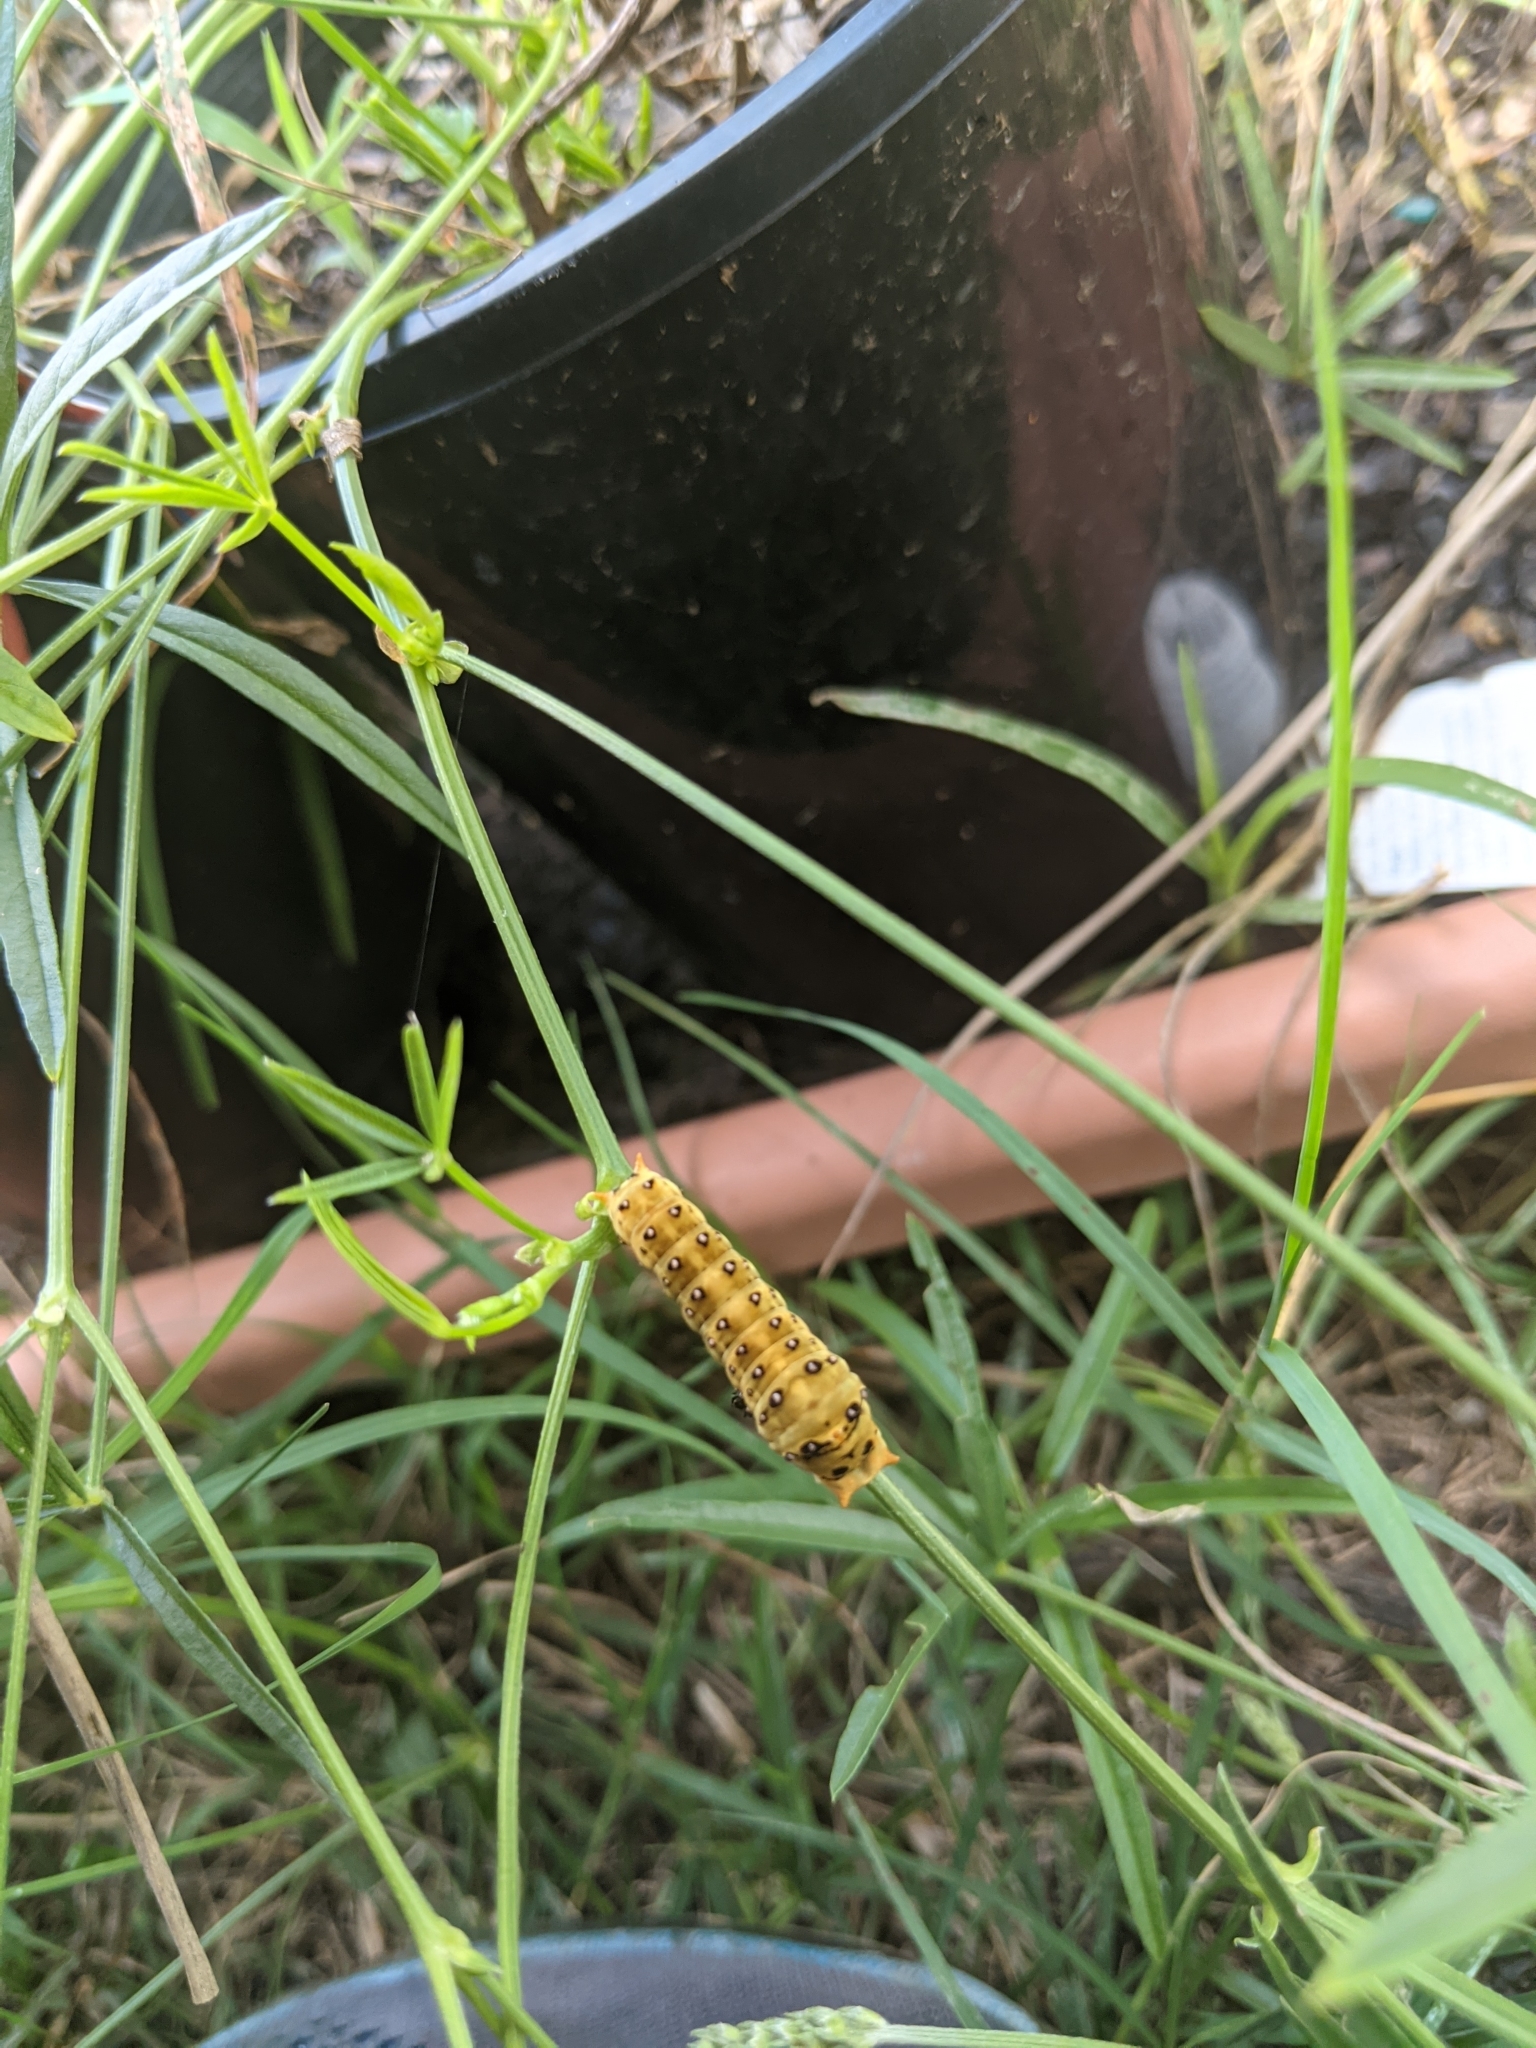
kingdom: Animalia
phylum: Arthropoda
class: Insecta
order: Lepidoptera
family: Papilionidae
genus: Papilio
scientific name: Papilio demoleus
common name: Lime butterfly
